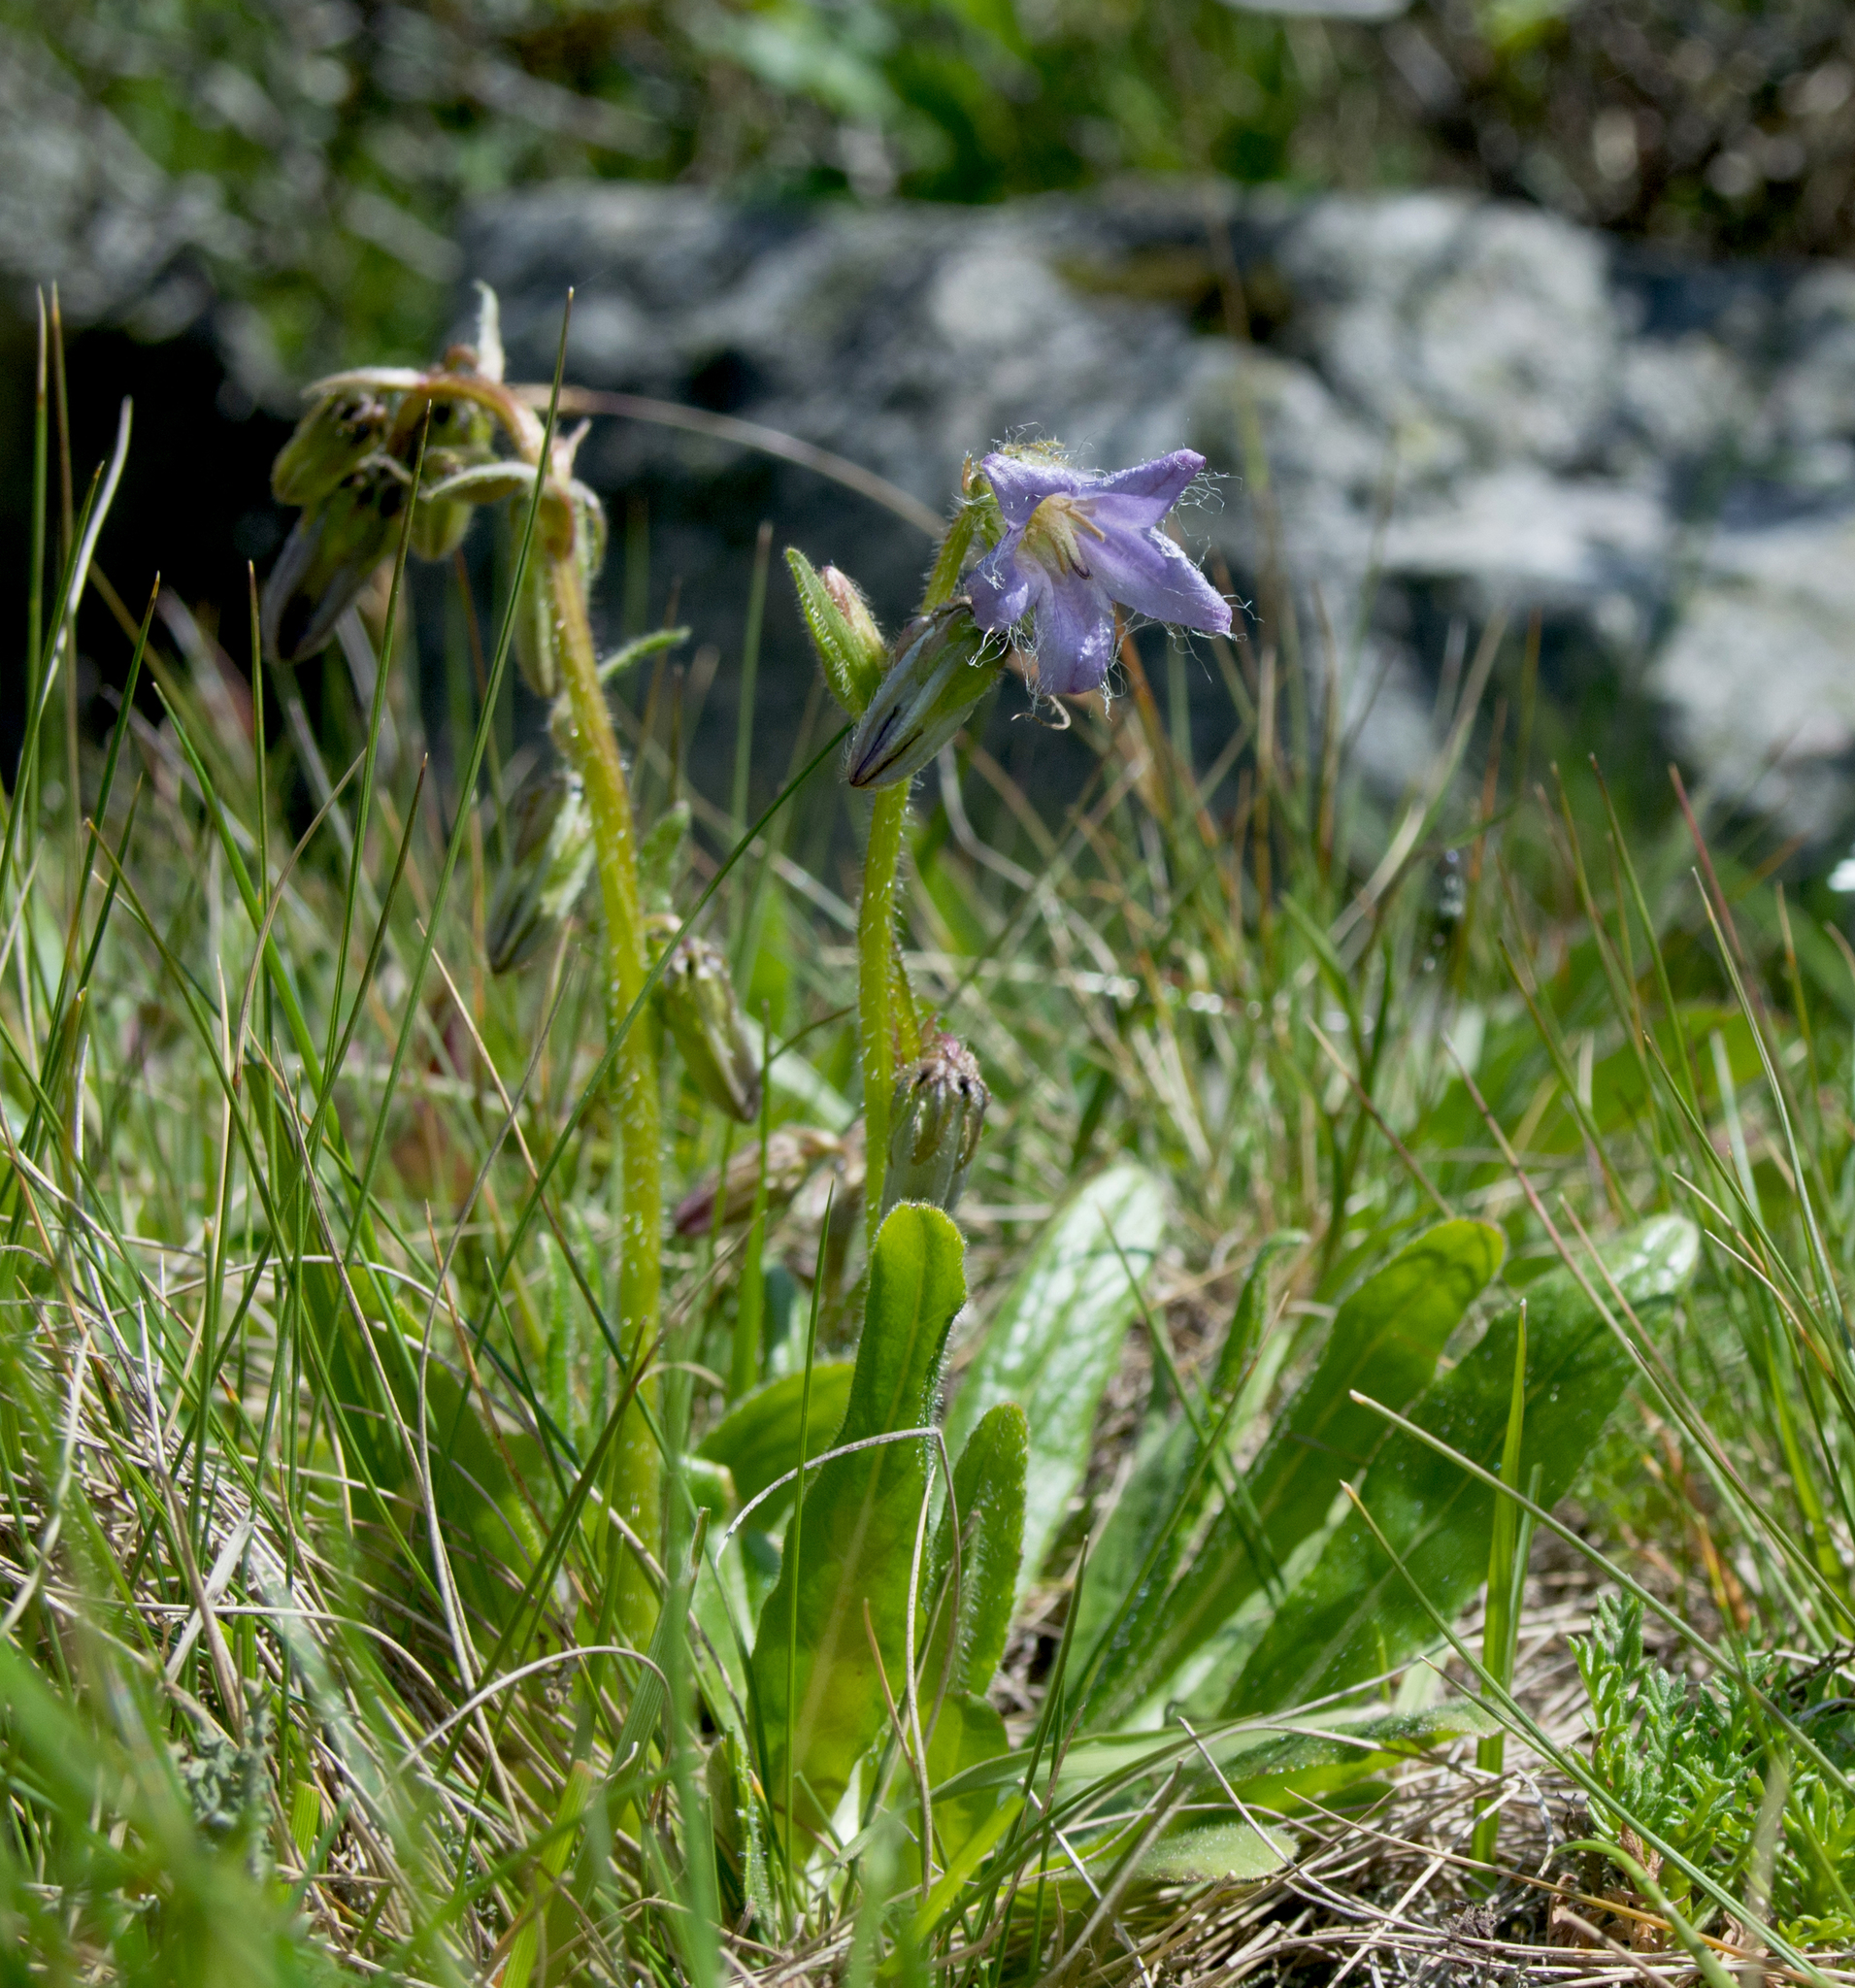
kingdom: Plantae
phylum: Tracheophyta
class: Magnoliopsida
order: Asterales
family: Campanulaceae
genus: Campanula
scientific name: Campanula barbata
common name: Bearded bellflower
